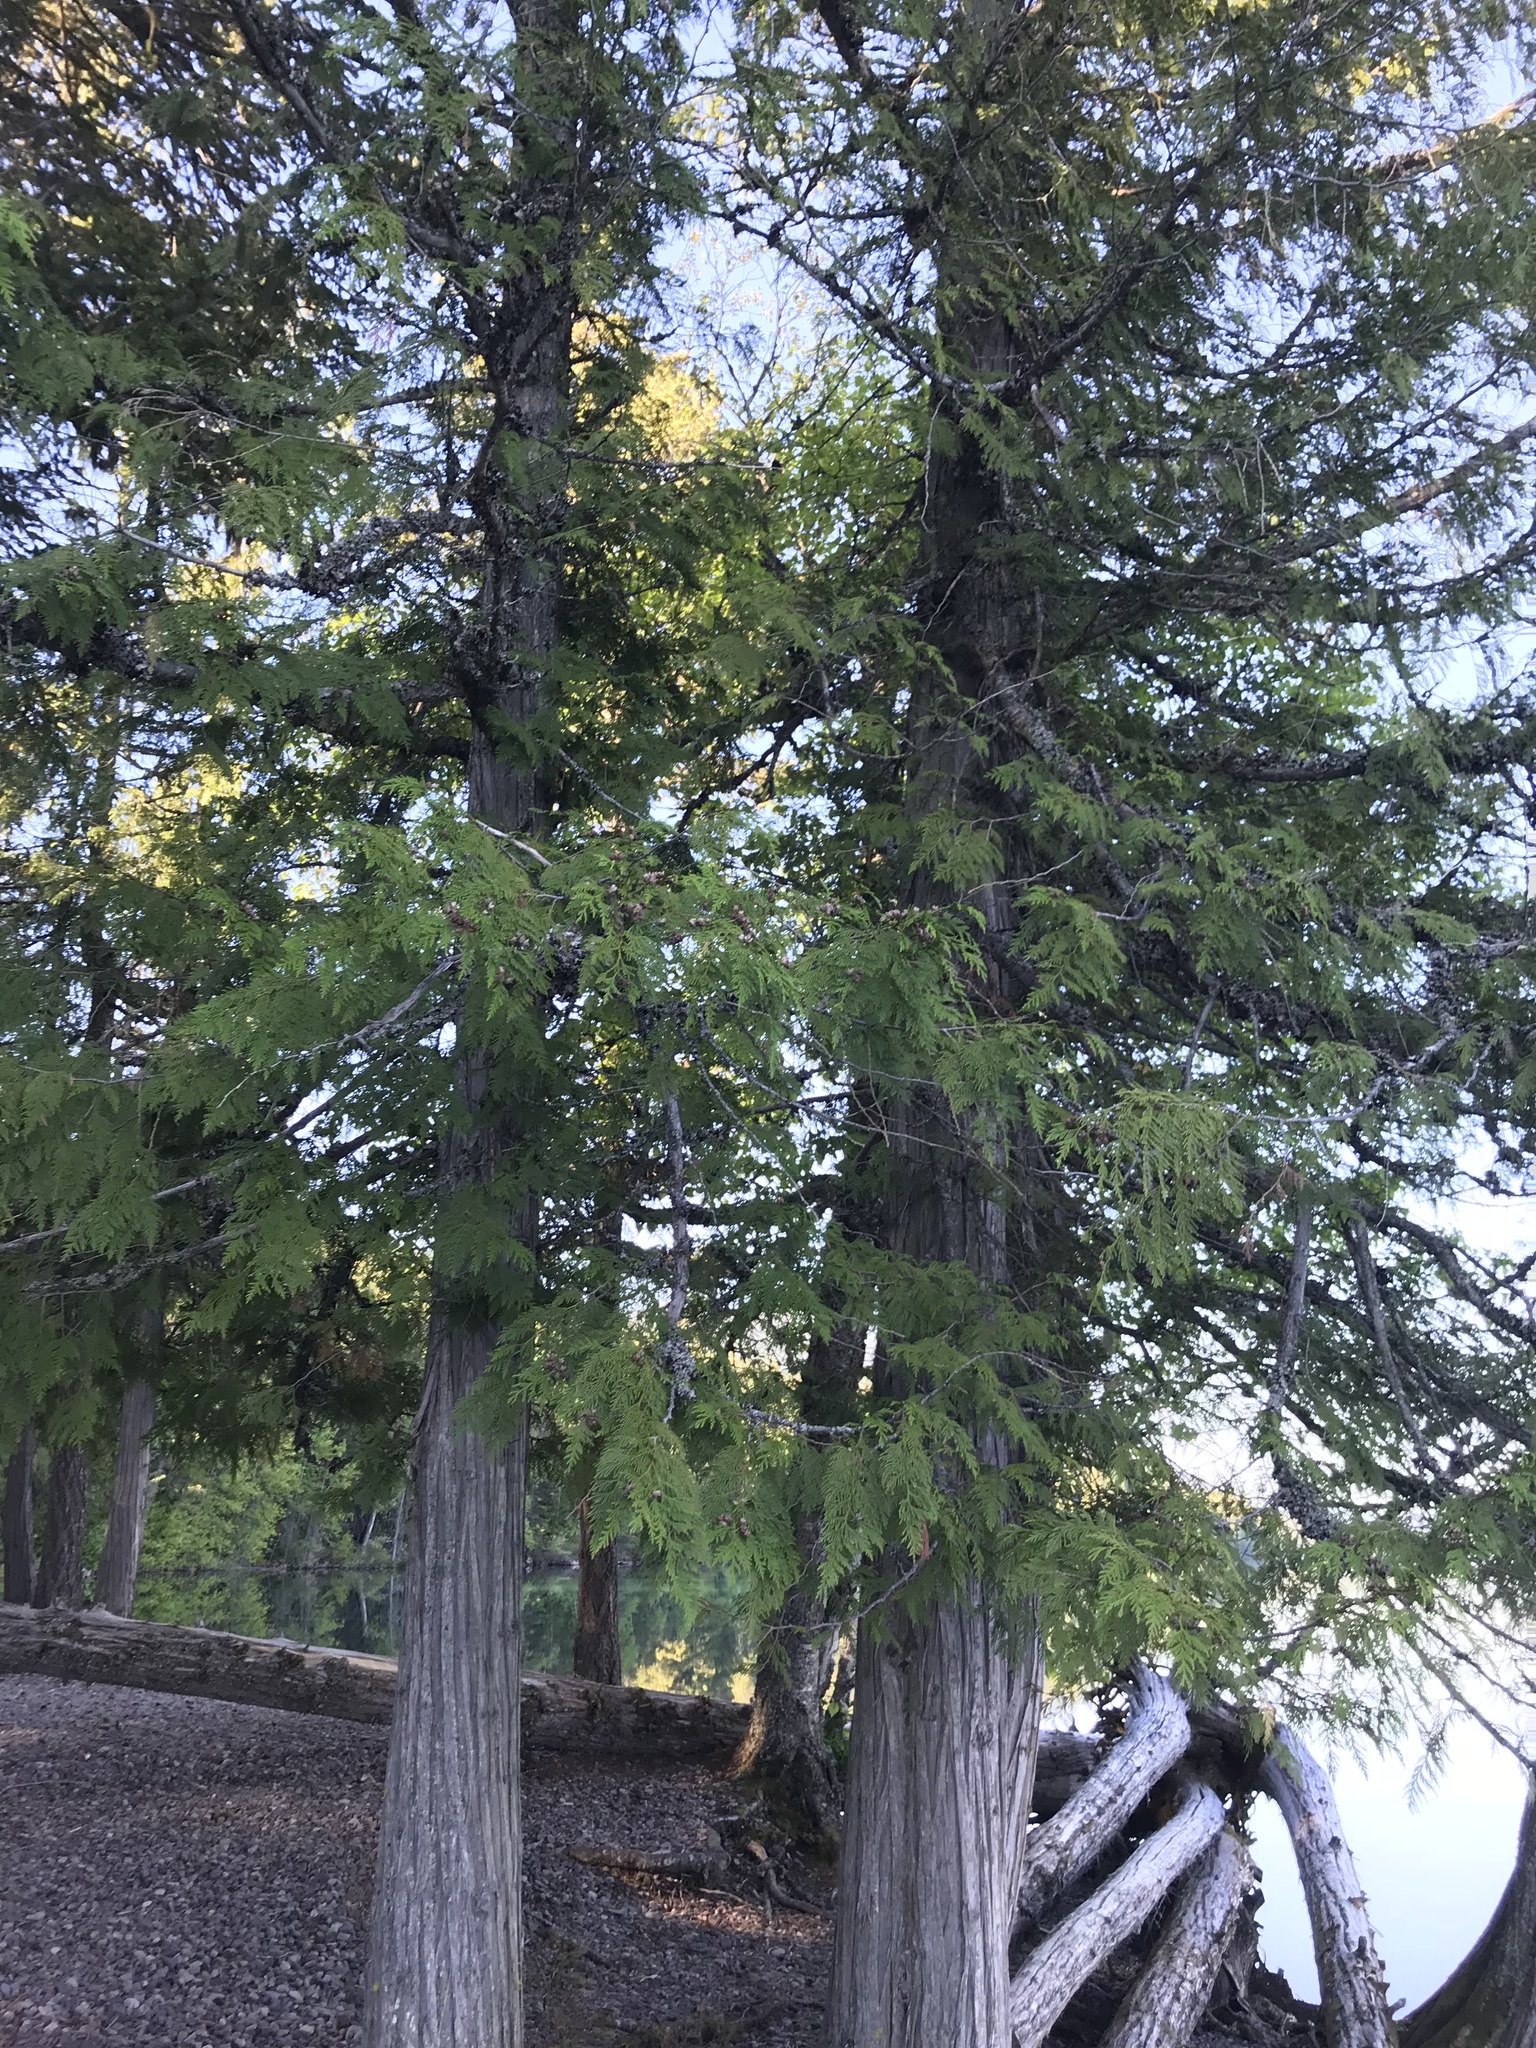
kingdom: Plantae
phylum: Tracheophyta
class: Pinopsida
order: Pinales
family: Cupressaceae
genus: Thuja
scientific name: Thuja plicata
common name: Western red-cedar
